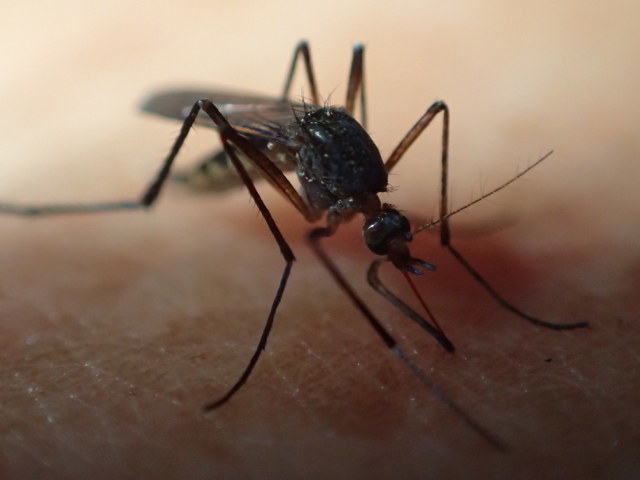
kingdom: Animalia
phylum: Arthropoda
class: Insecta
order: Diptera
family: Culicidae
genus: Psorophora
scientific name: Psorophora ferox
